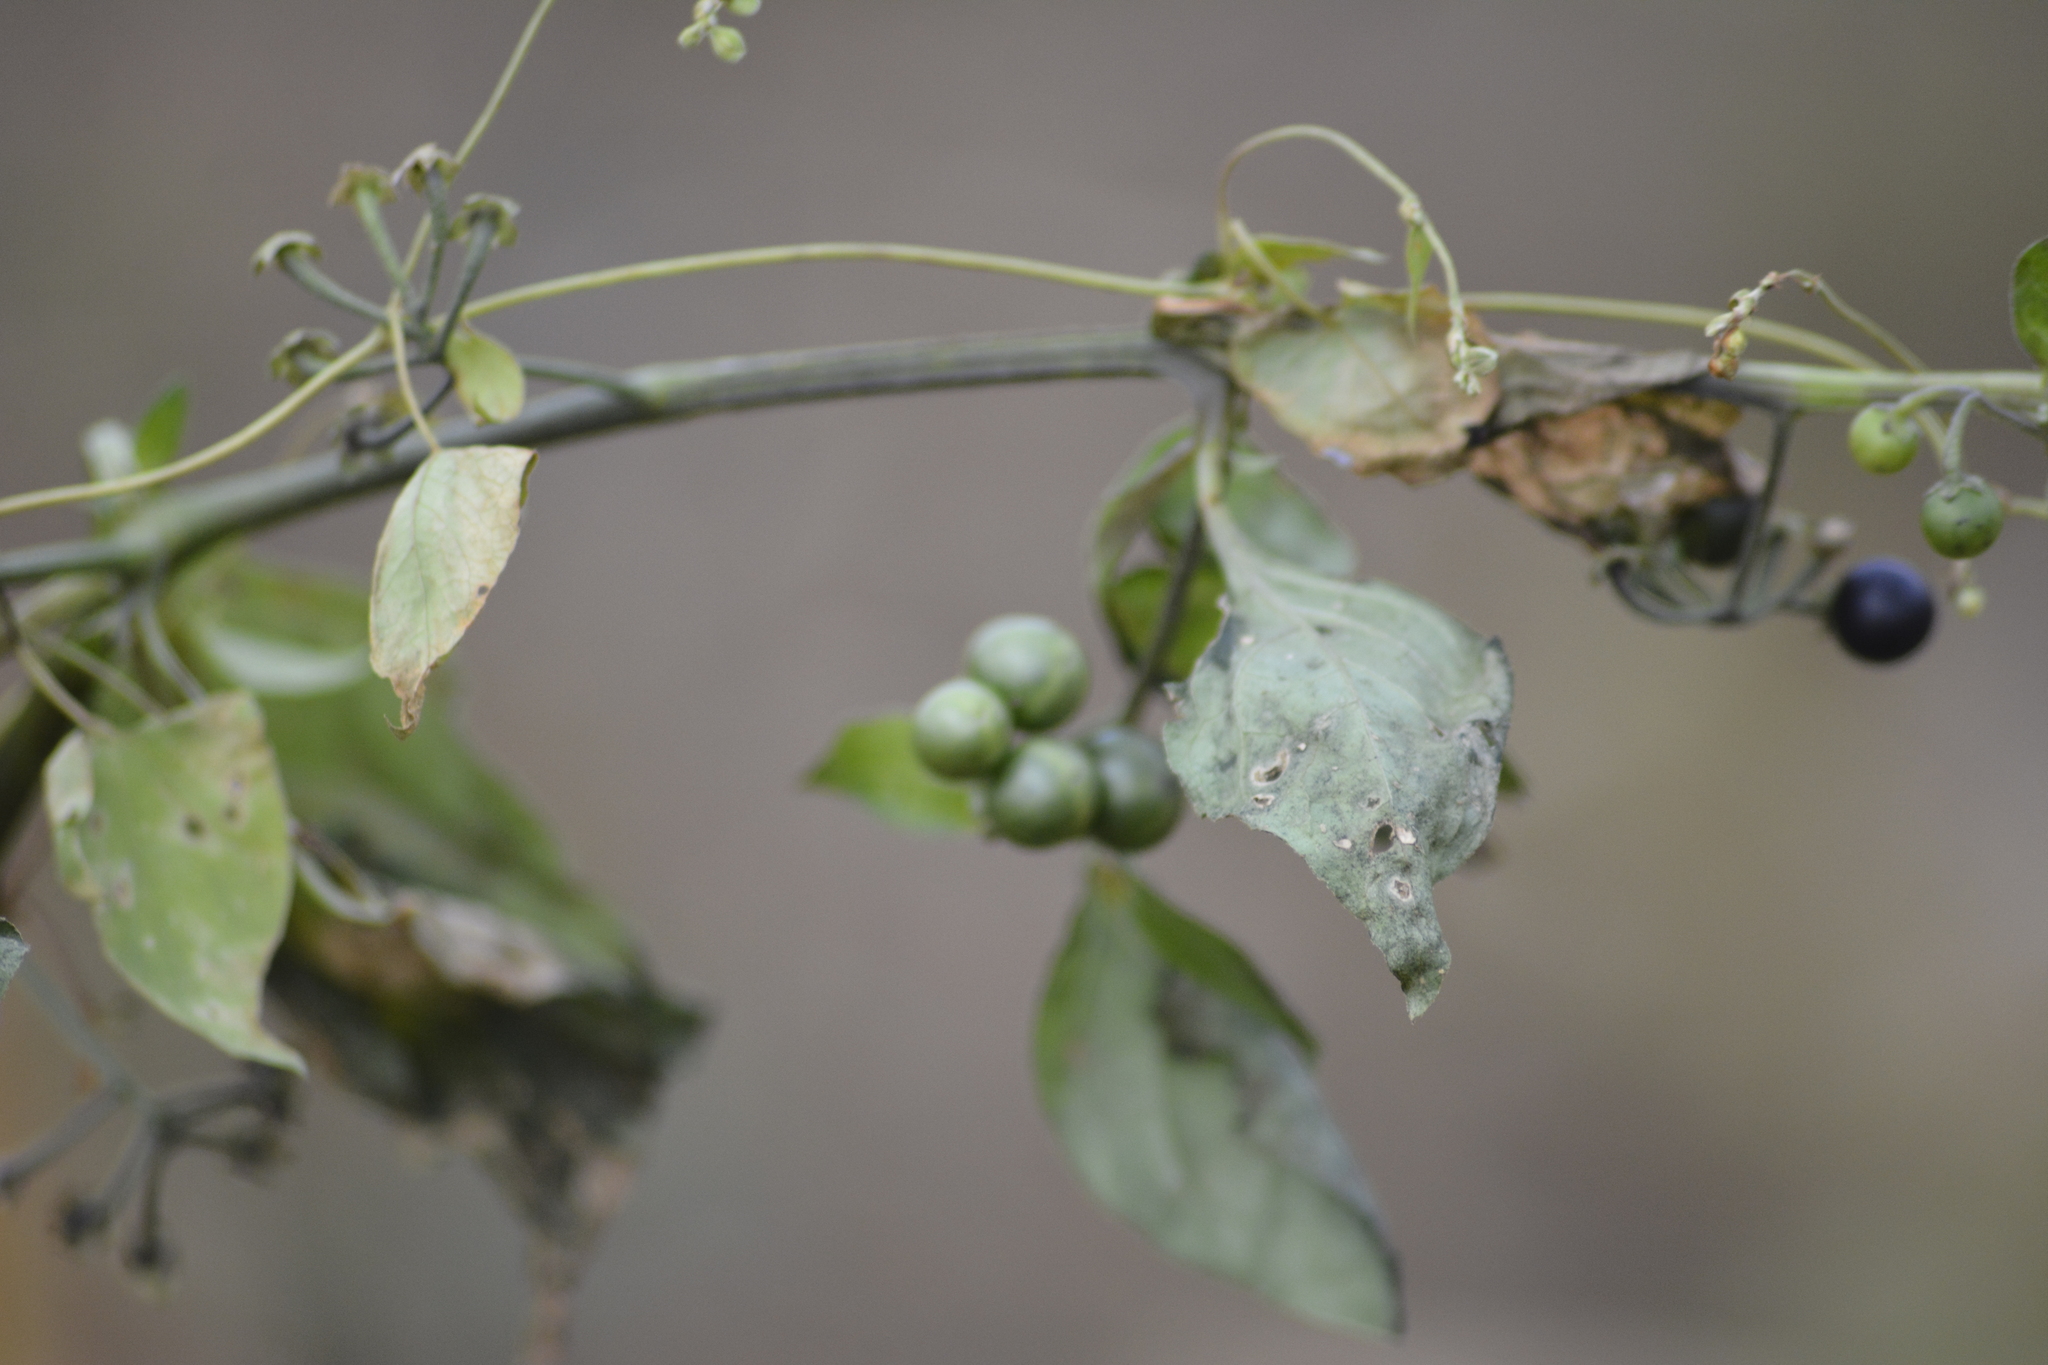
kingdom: Plantae
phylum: Tracheophyta
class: Magnoliopsida
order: Solanales
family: Solanaceae
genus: Solanum
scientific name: Solanum nigrum
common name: Black nightshade
